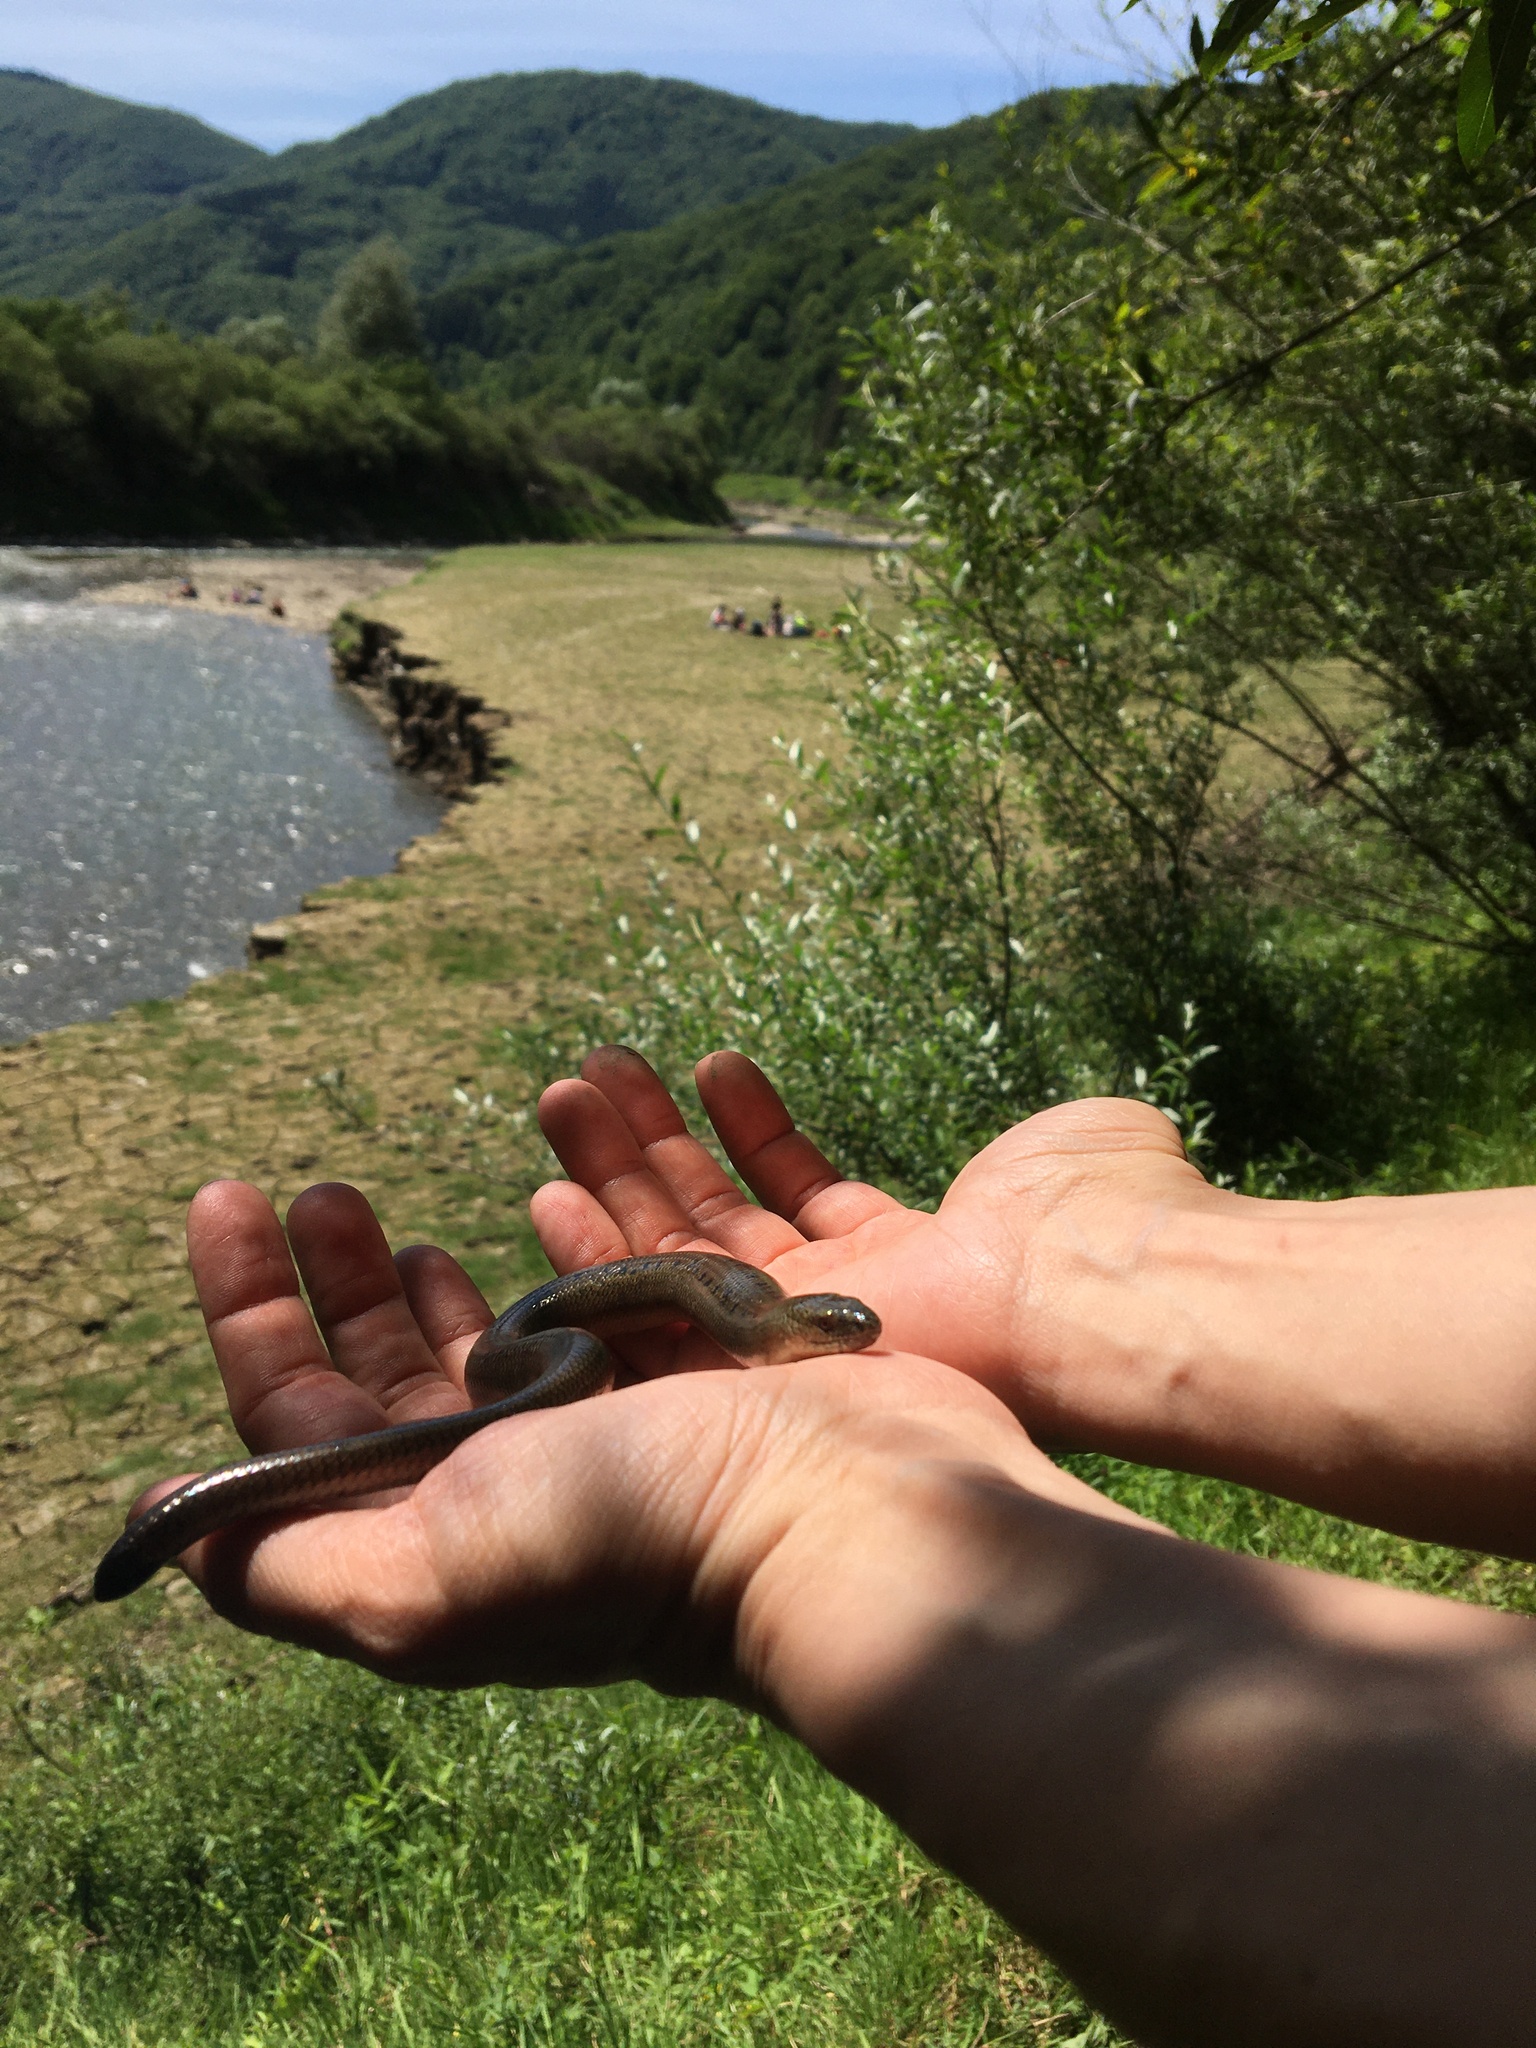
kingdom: Animalia
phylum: Chordata
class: Squamata
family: Anguidae
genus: Anguis
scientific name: Anguis colchica
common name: Slow worm
